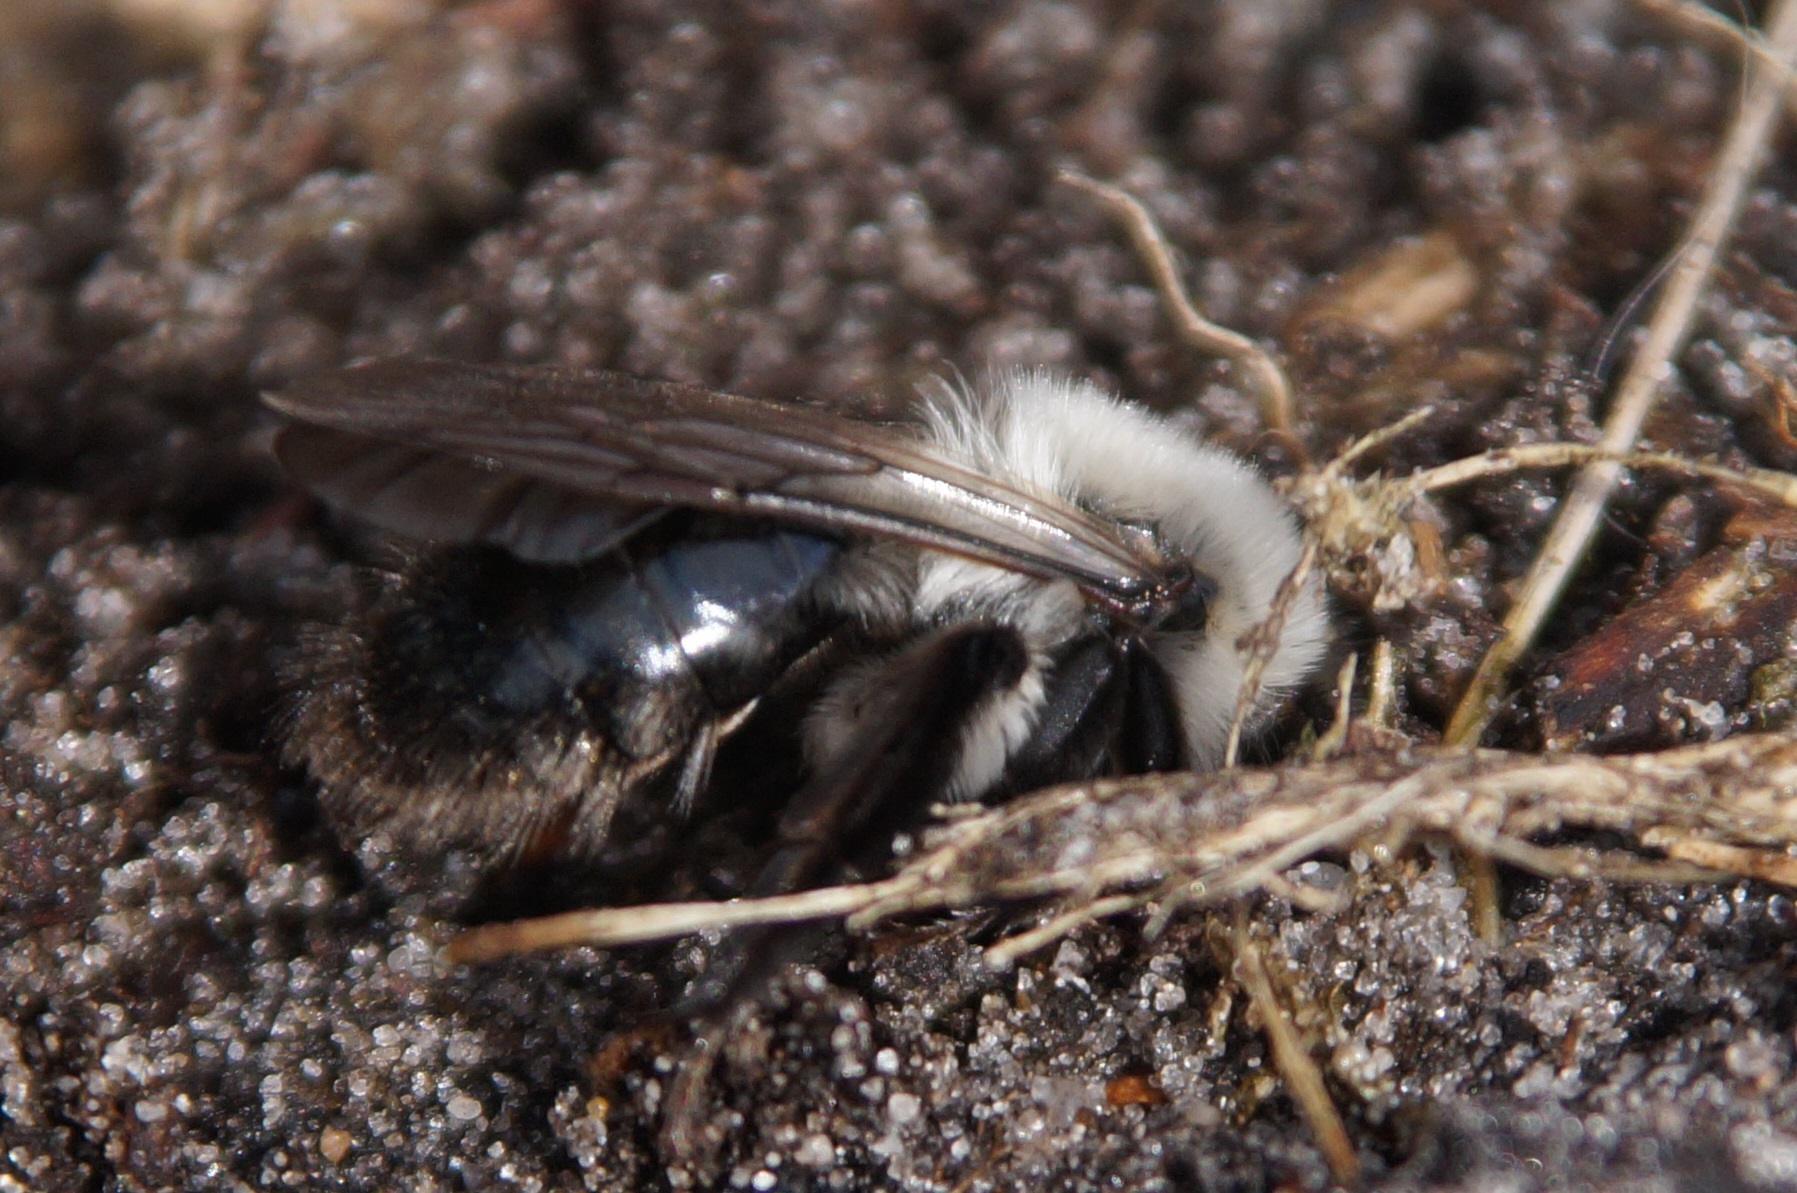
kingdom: Animalia
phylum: Arthropoda
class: Insecta
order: Hymenoptera
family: Andrenidae
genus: Andrena
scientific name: Andrena vaga
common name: Grey-backed mining bee
